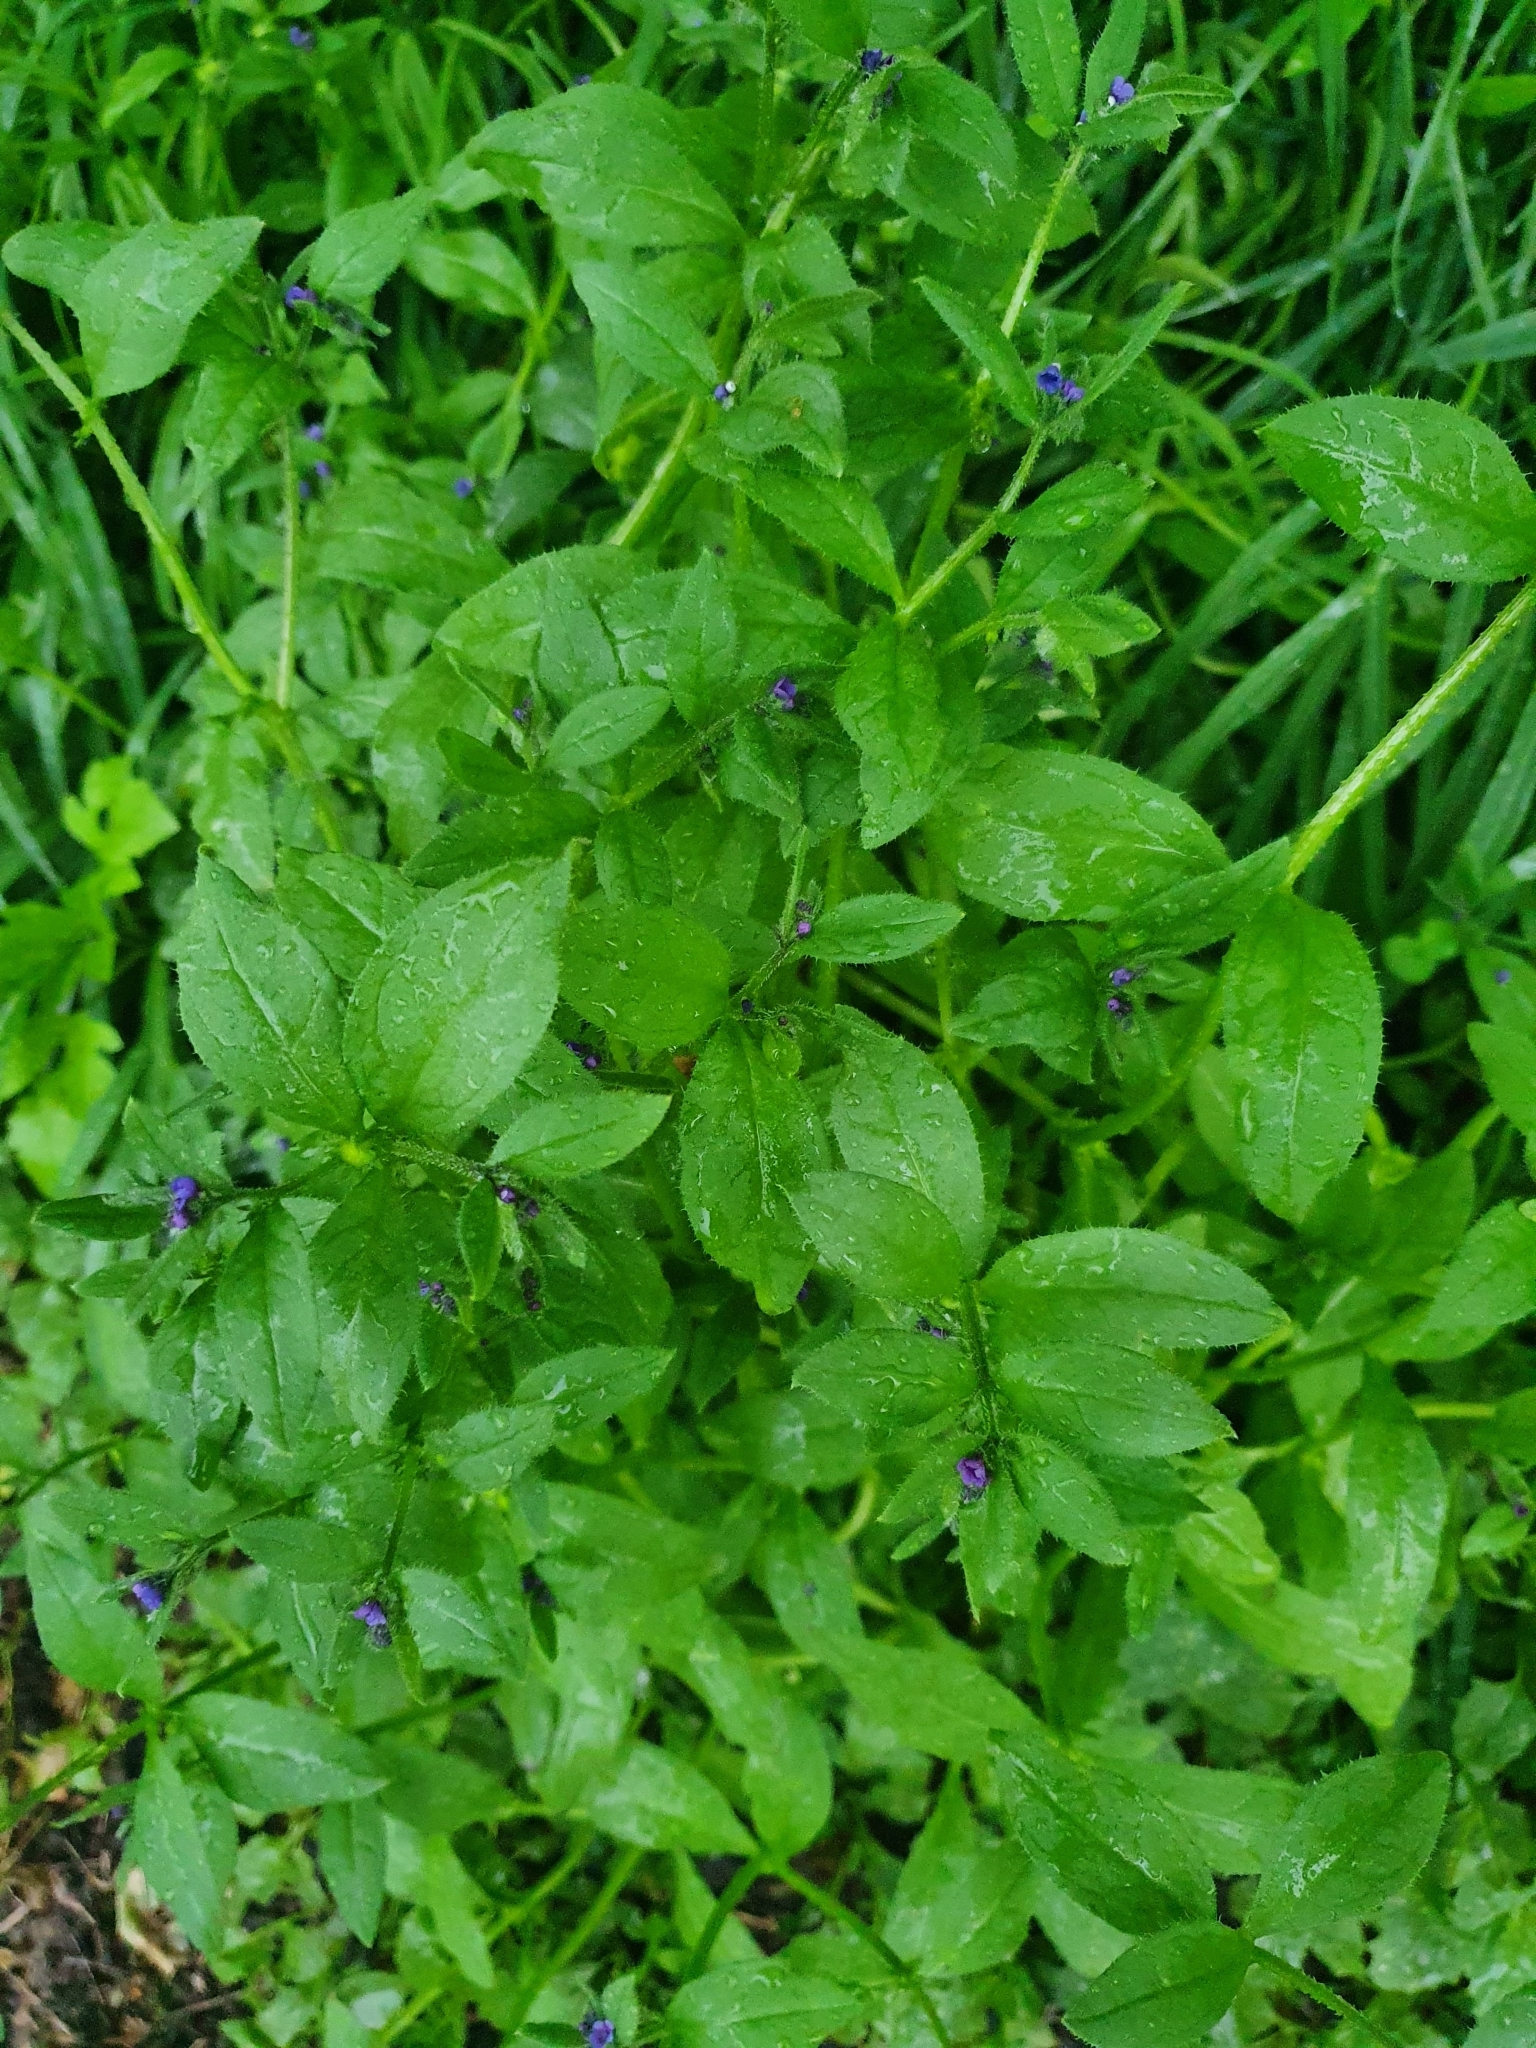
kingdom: Plantae
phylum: Tracheophyta
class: Magnoliopsida
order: Boraginales
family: Boraginaceae
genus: Asperugo
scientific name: Asperugo procumbens
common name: Madwort
